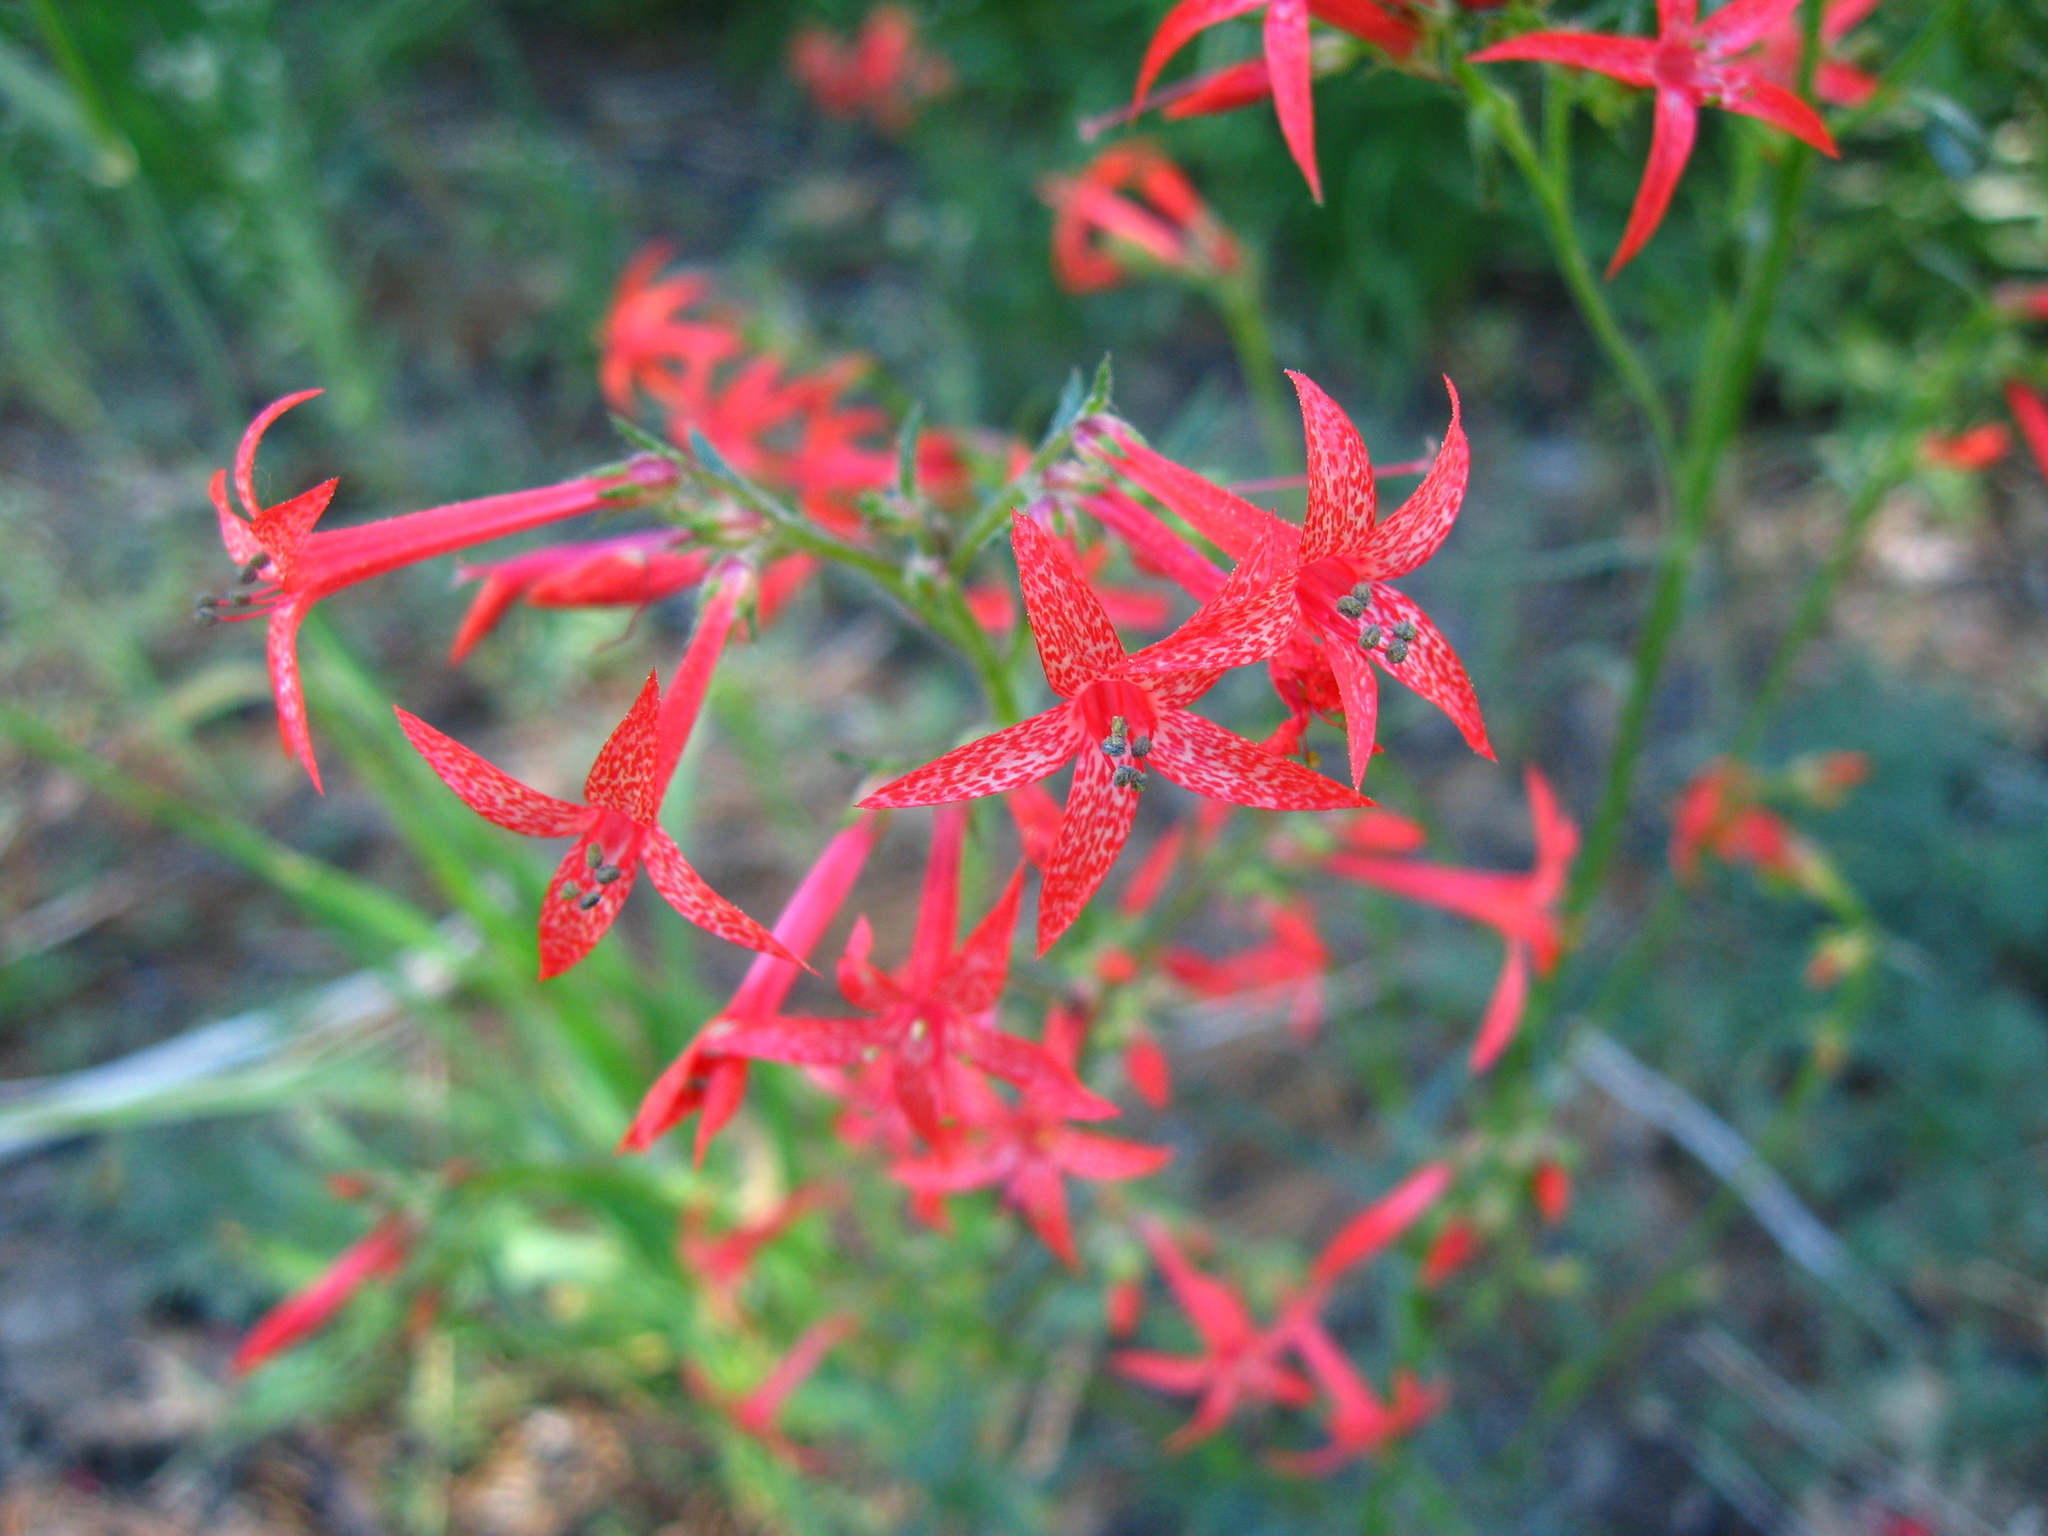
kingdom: Plantae
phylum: Tracheophyta
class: Magnoliopsida
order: Ericales
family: Polemoniaceae
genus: Ipomopsis
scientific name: Ipomopsis aggregata
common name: Scarlet gilia
